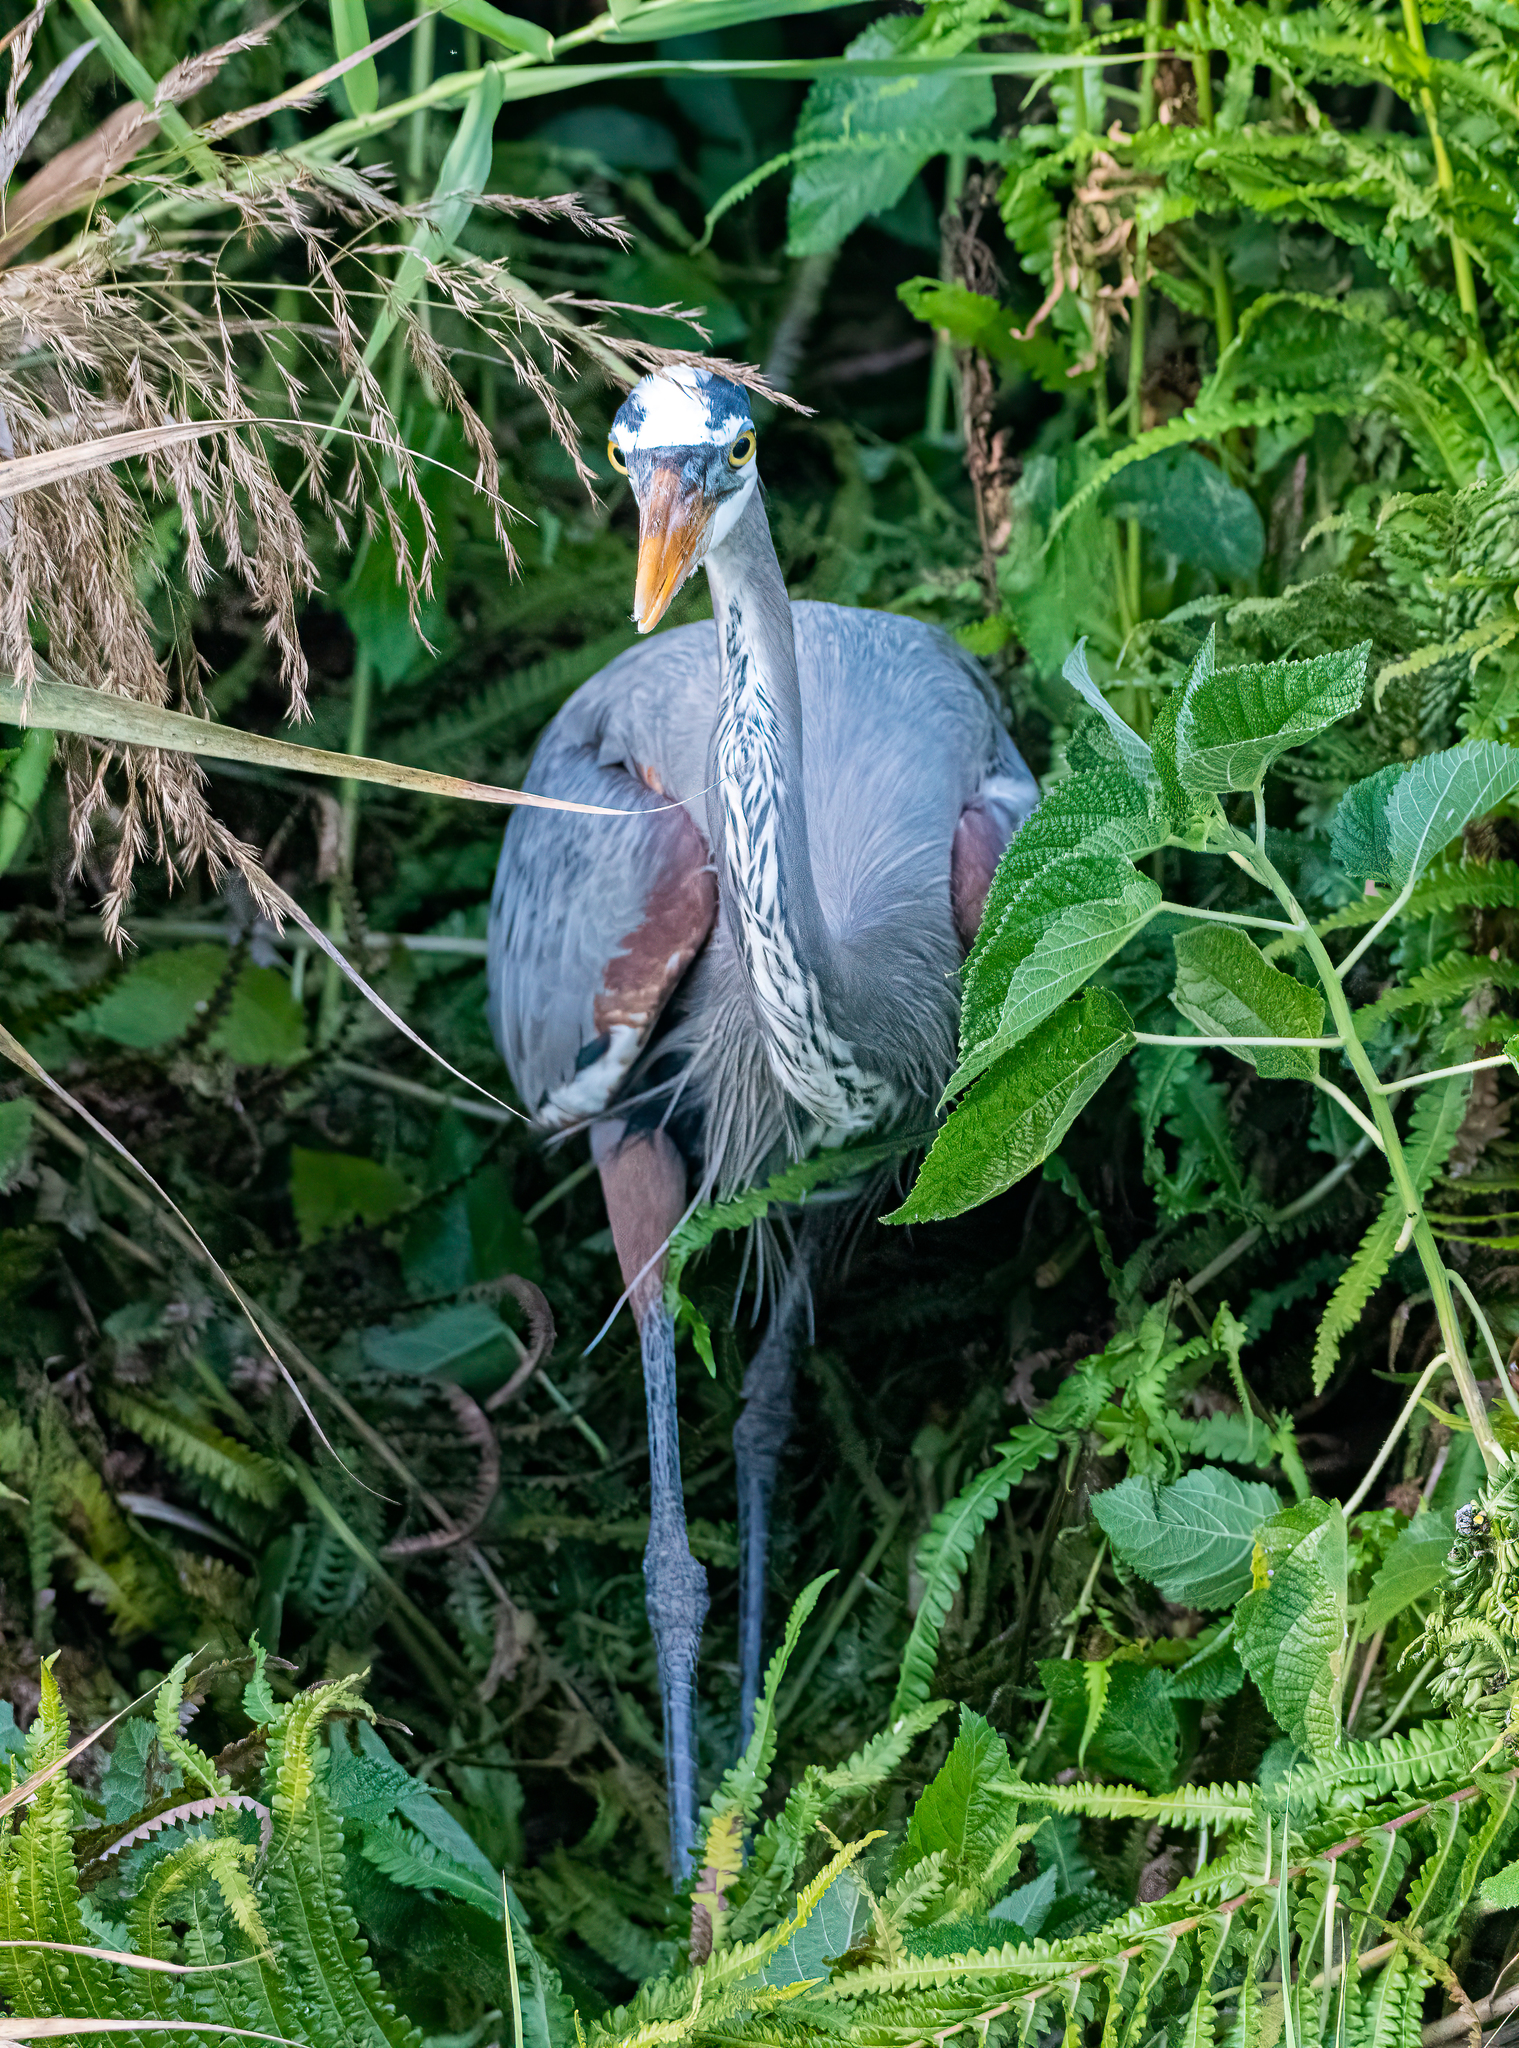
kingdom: Animalia
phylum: Chordata
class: Aves
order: Pelecaniformes
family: Ardeidae
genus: Ardea
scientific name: Ardea herodias
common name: Great blue heron
